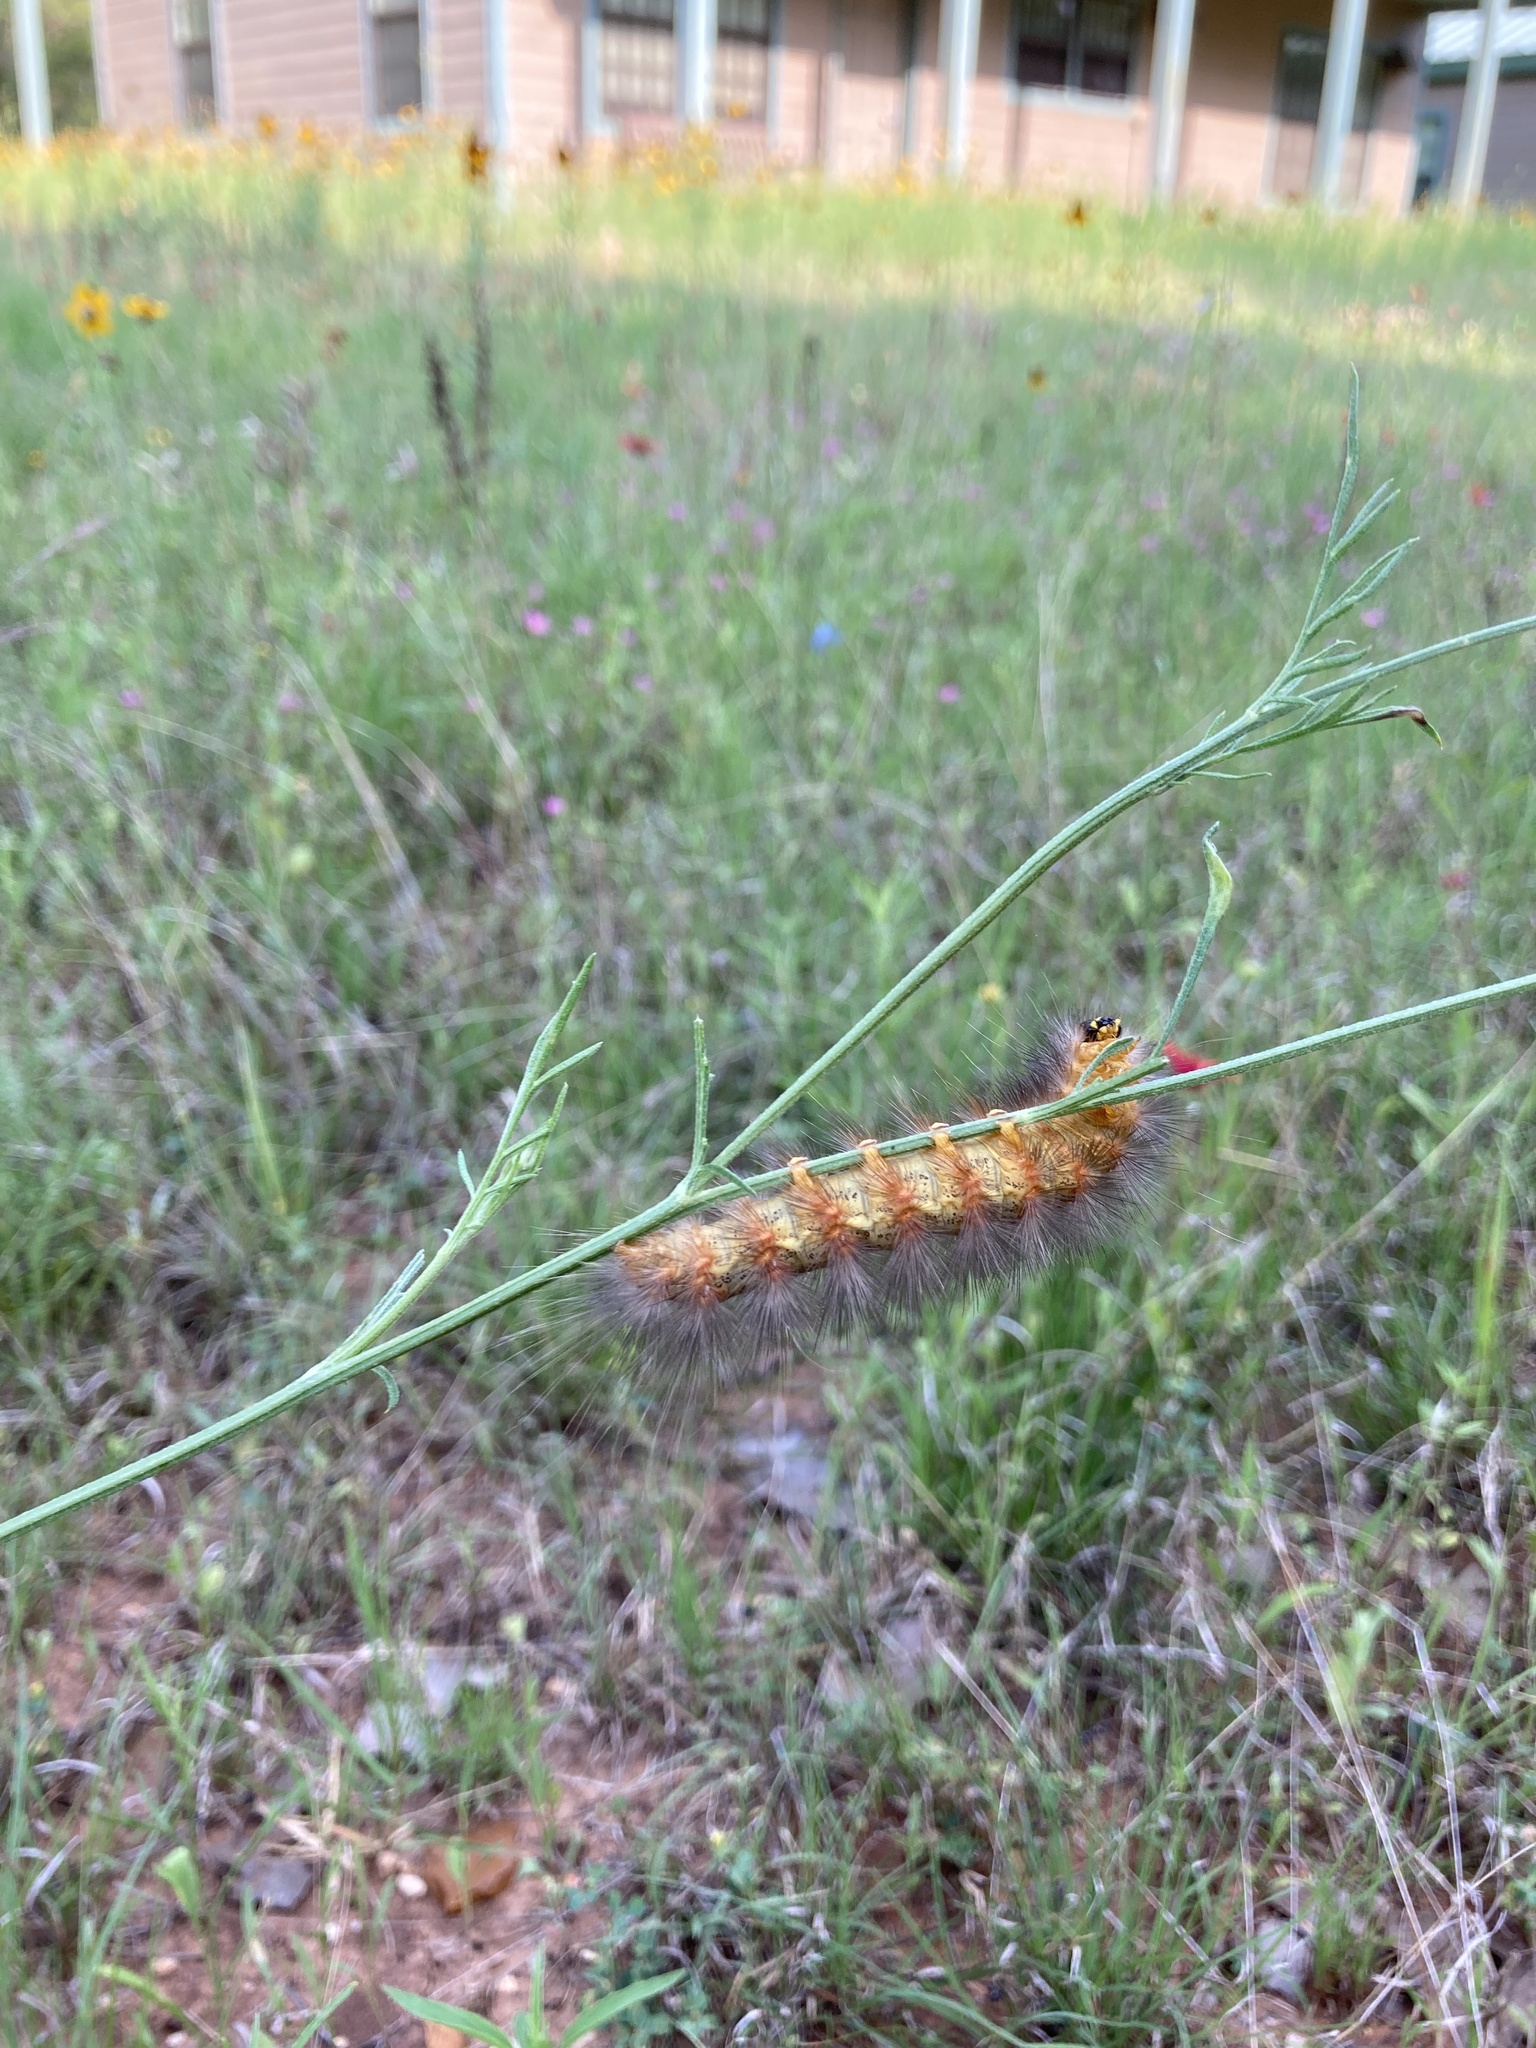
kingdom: Animalia
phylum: Arthropoda
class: Insecta
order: Lepidoptera
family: Erebidae
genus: Estigmene
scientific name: Estigmene acrea
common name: Salt marsh moth
